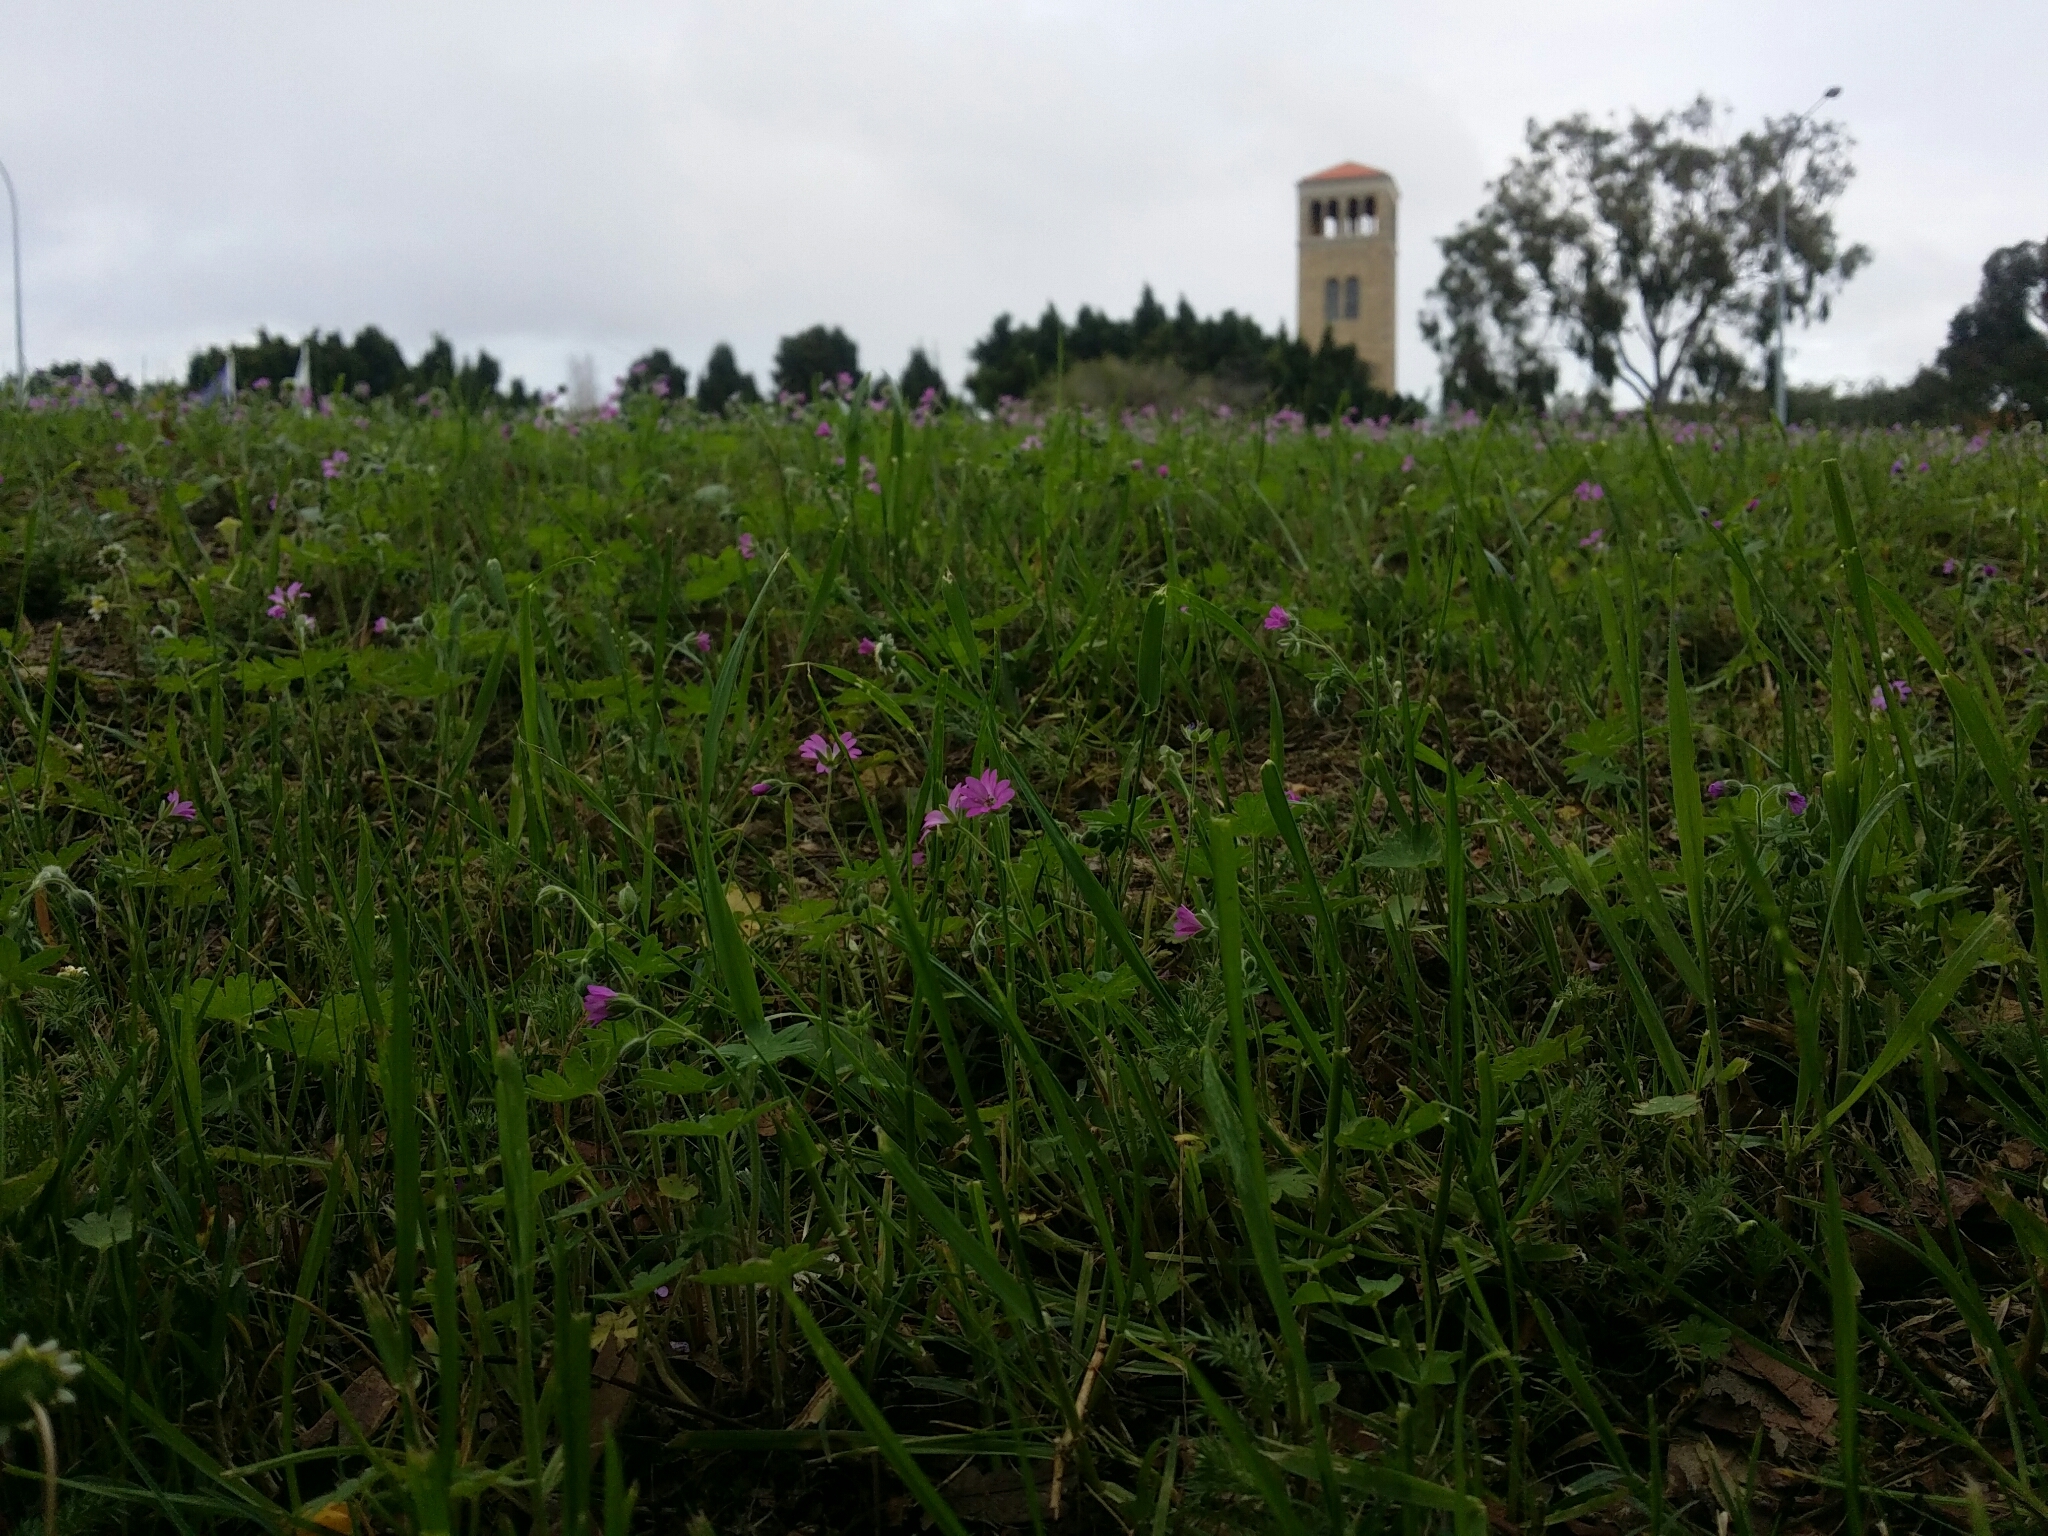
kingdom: Plantae
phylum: Tracheophyta
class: Magnoliopsida
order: Geraniales
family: Geraniaceae
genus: Geranium
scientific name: Geranium molle
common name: Dove's-foot crane's-bill
